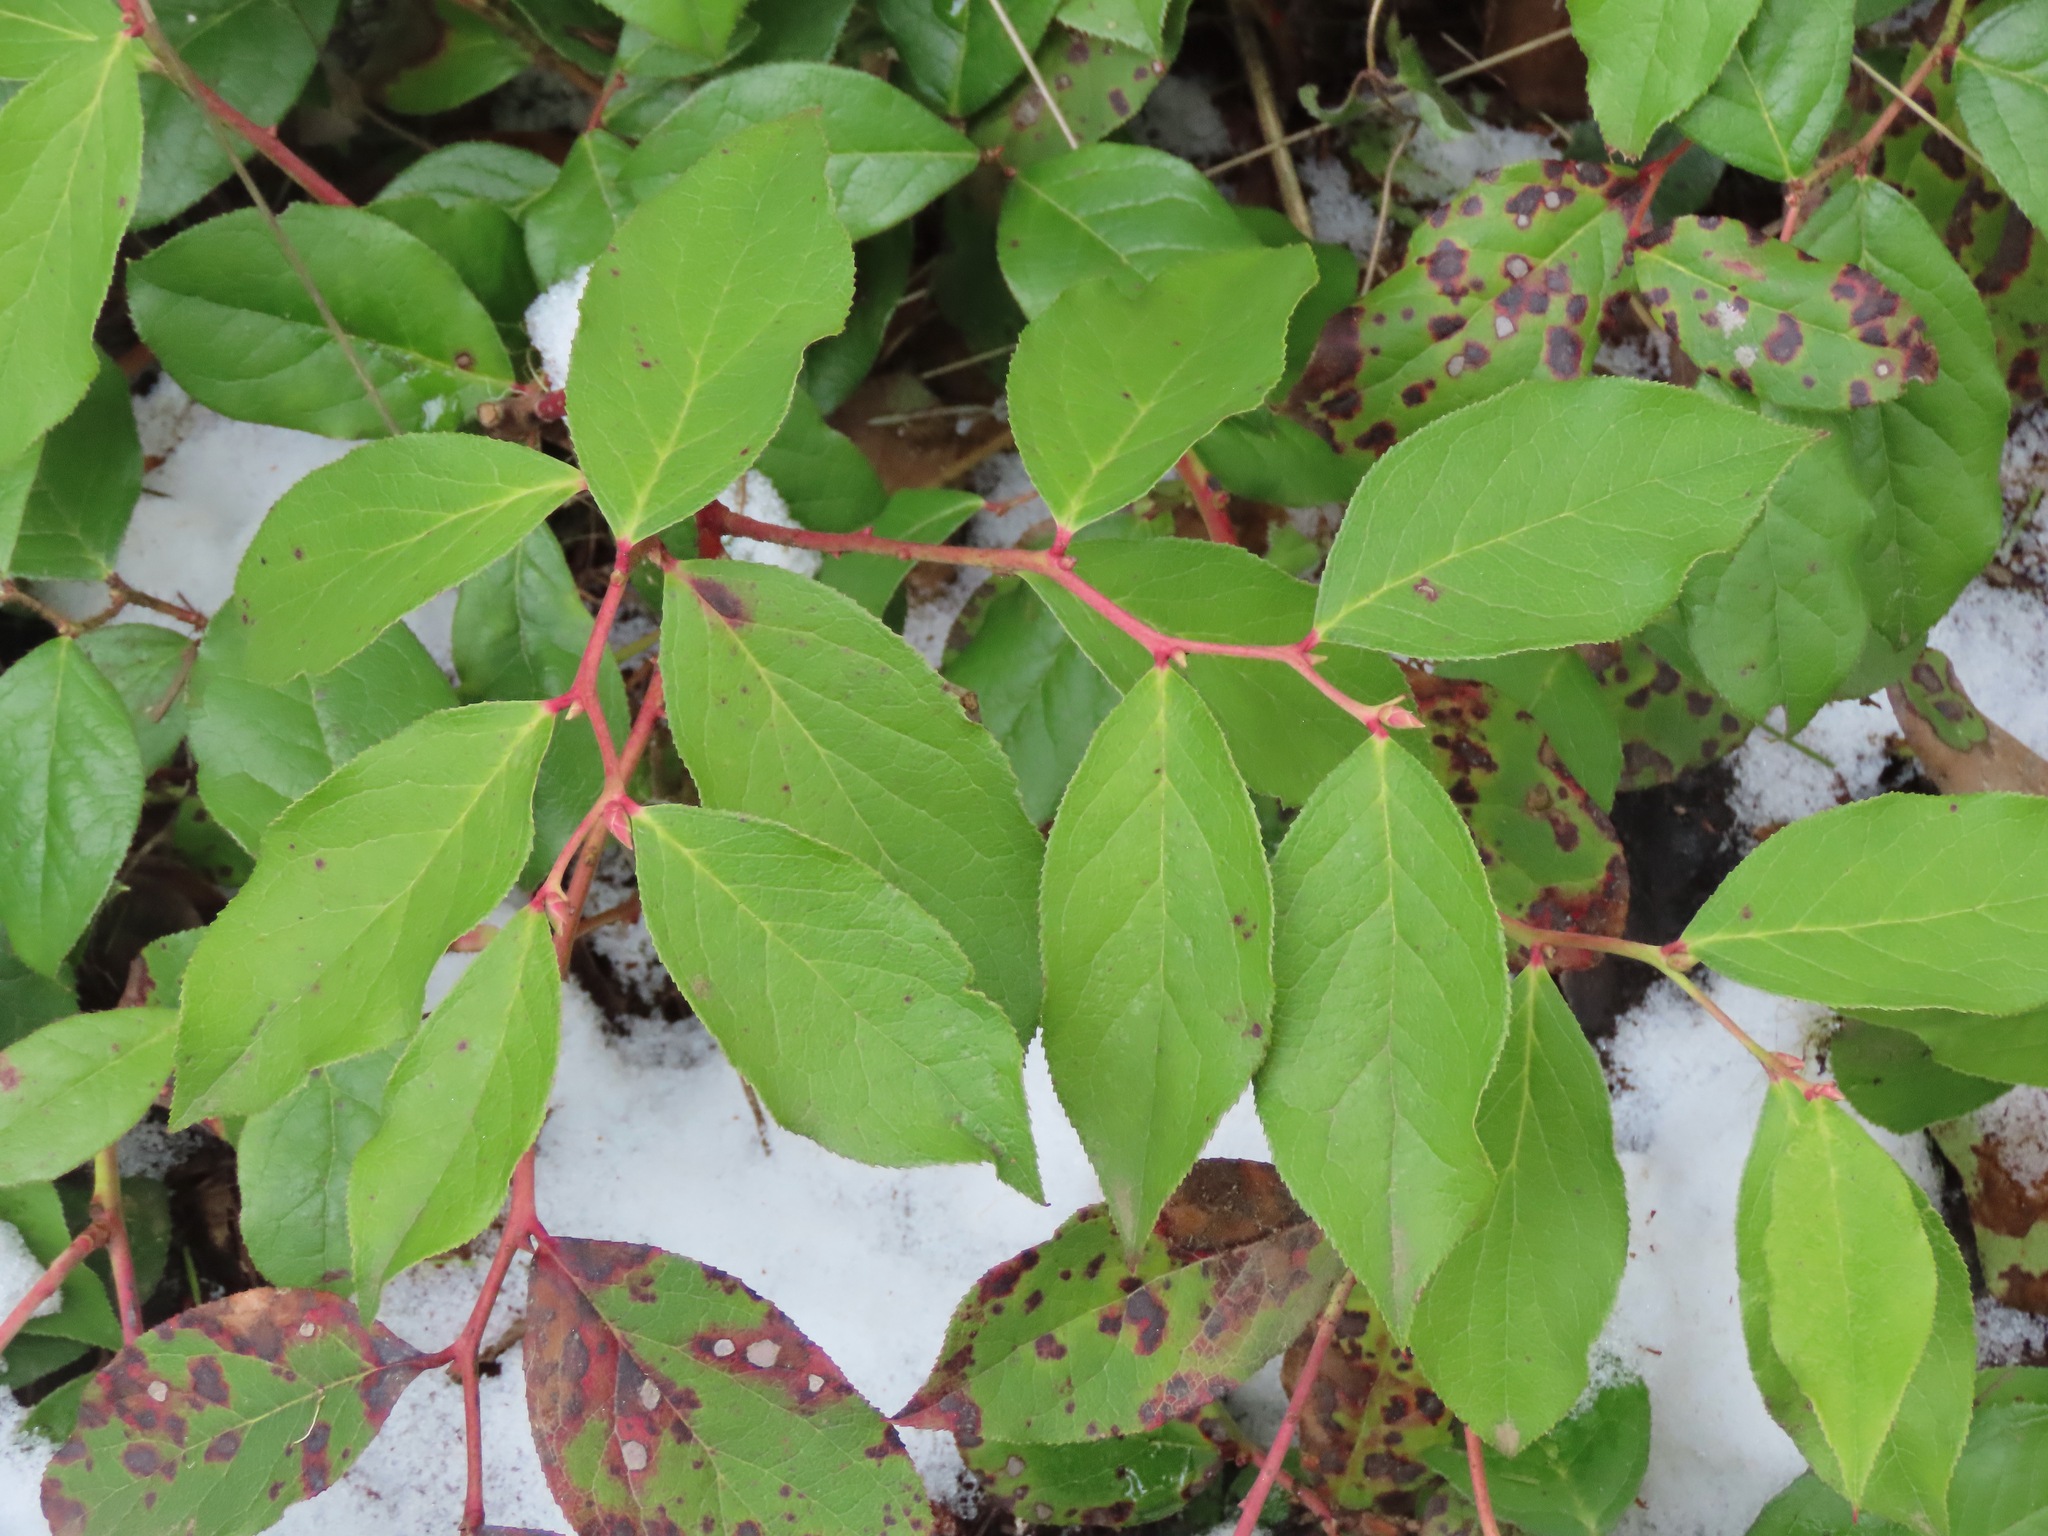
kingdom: Plantae
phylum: Tracheophyta
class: Magnoliopsida
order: Ericales
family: Ericaceae
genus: Gaultheria
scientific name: Gaultheria shallon
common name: Shallon
